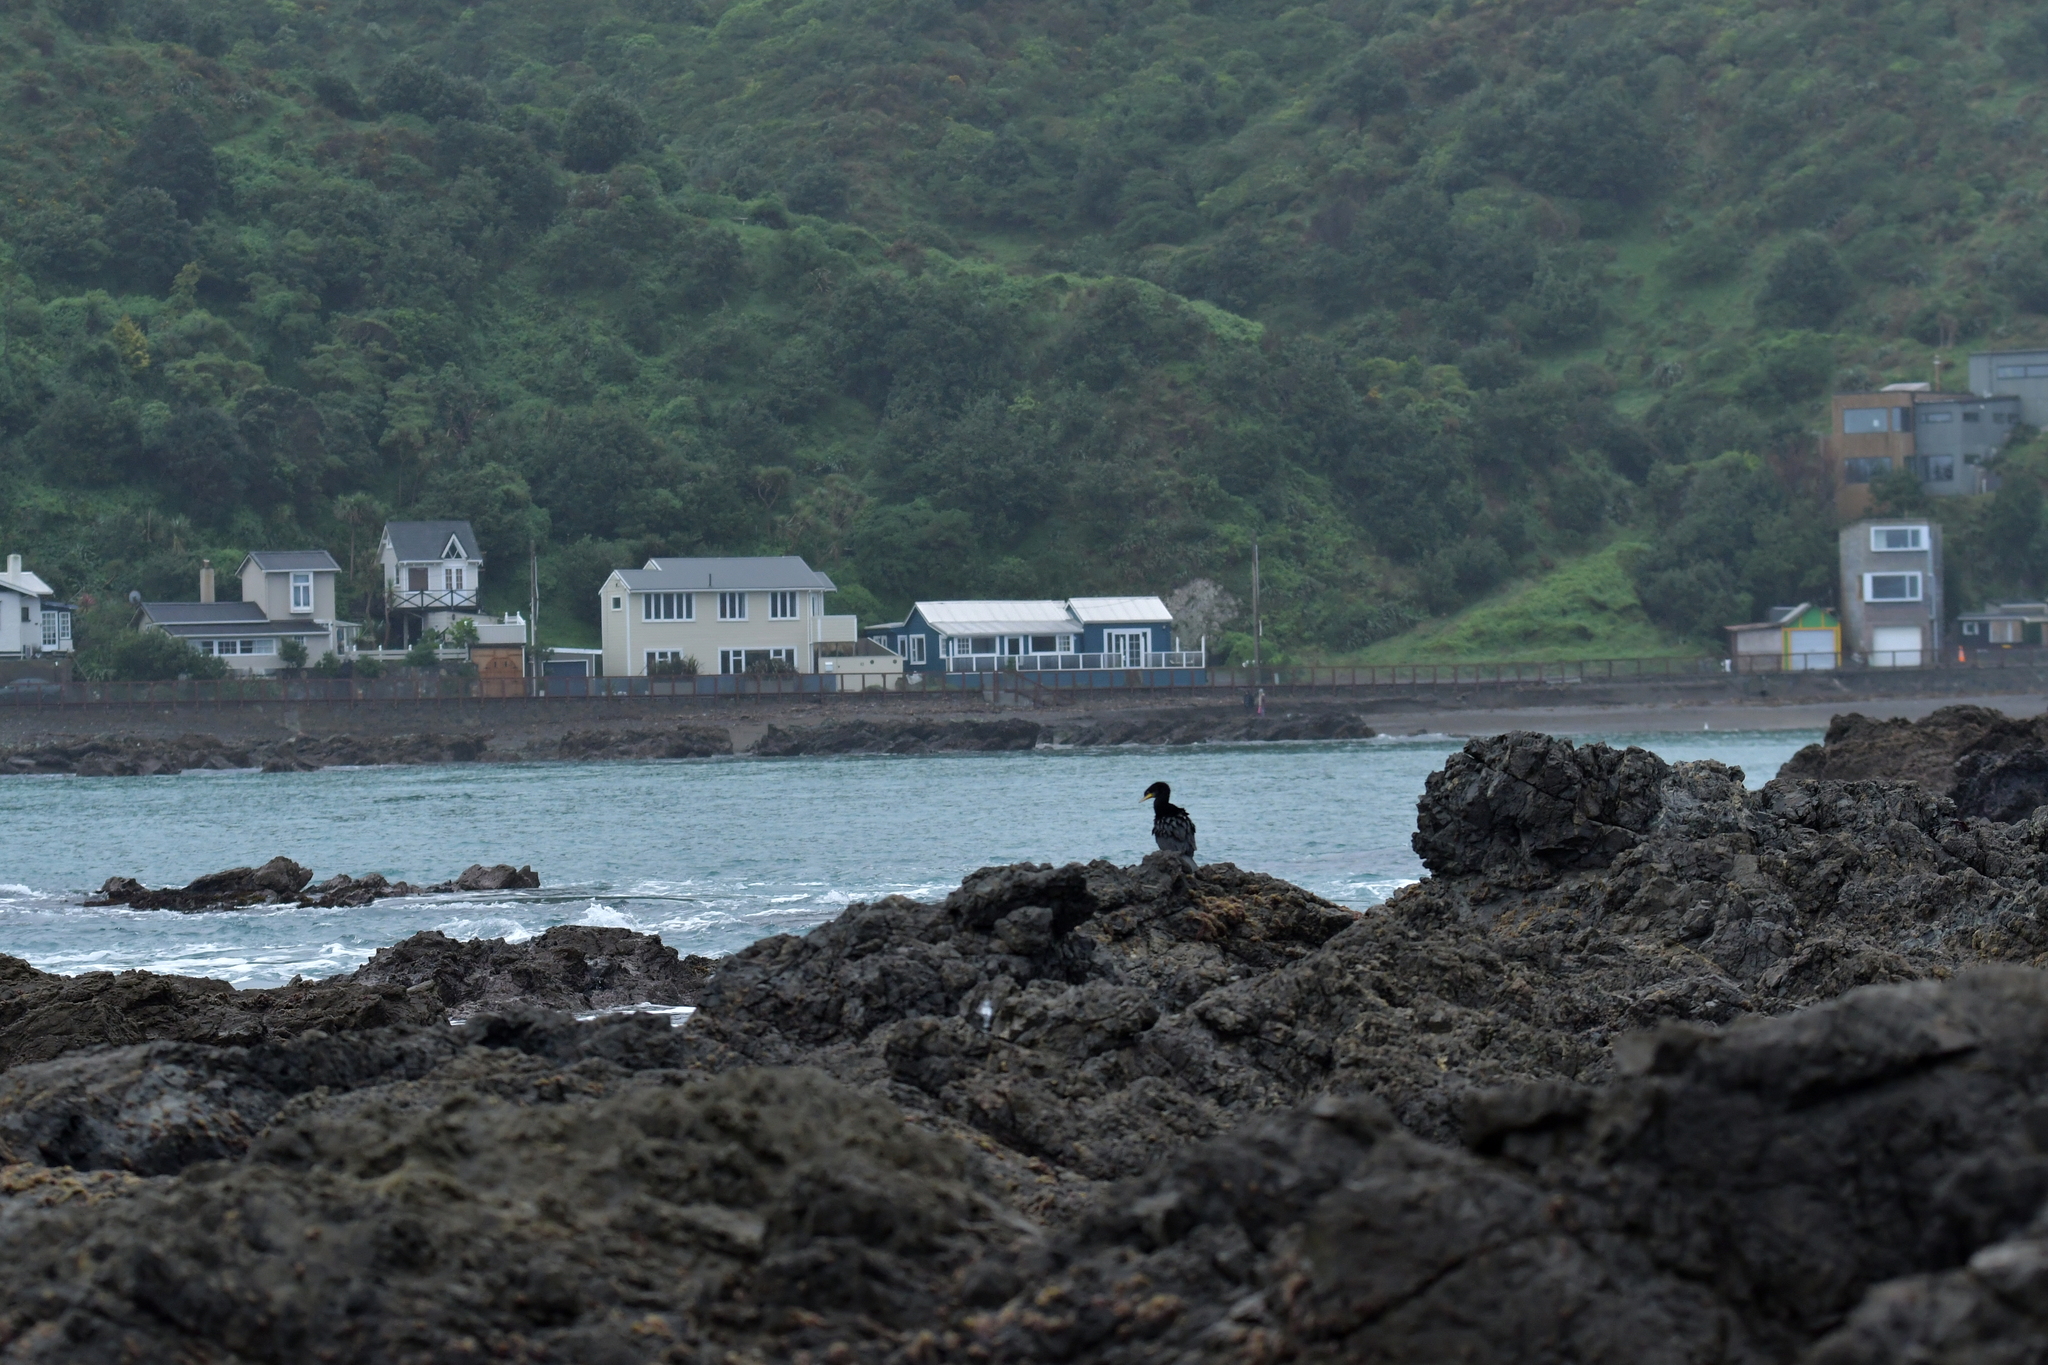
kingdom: Animalia
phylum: Chordata
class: Aves
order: Suliformes
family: Phalacrocoracidae
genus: Microcarbo
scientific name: Microcarbo melanoleucos
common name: Little pied cormorant
